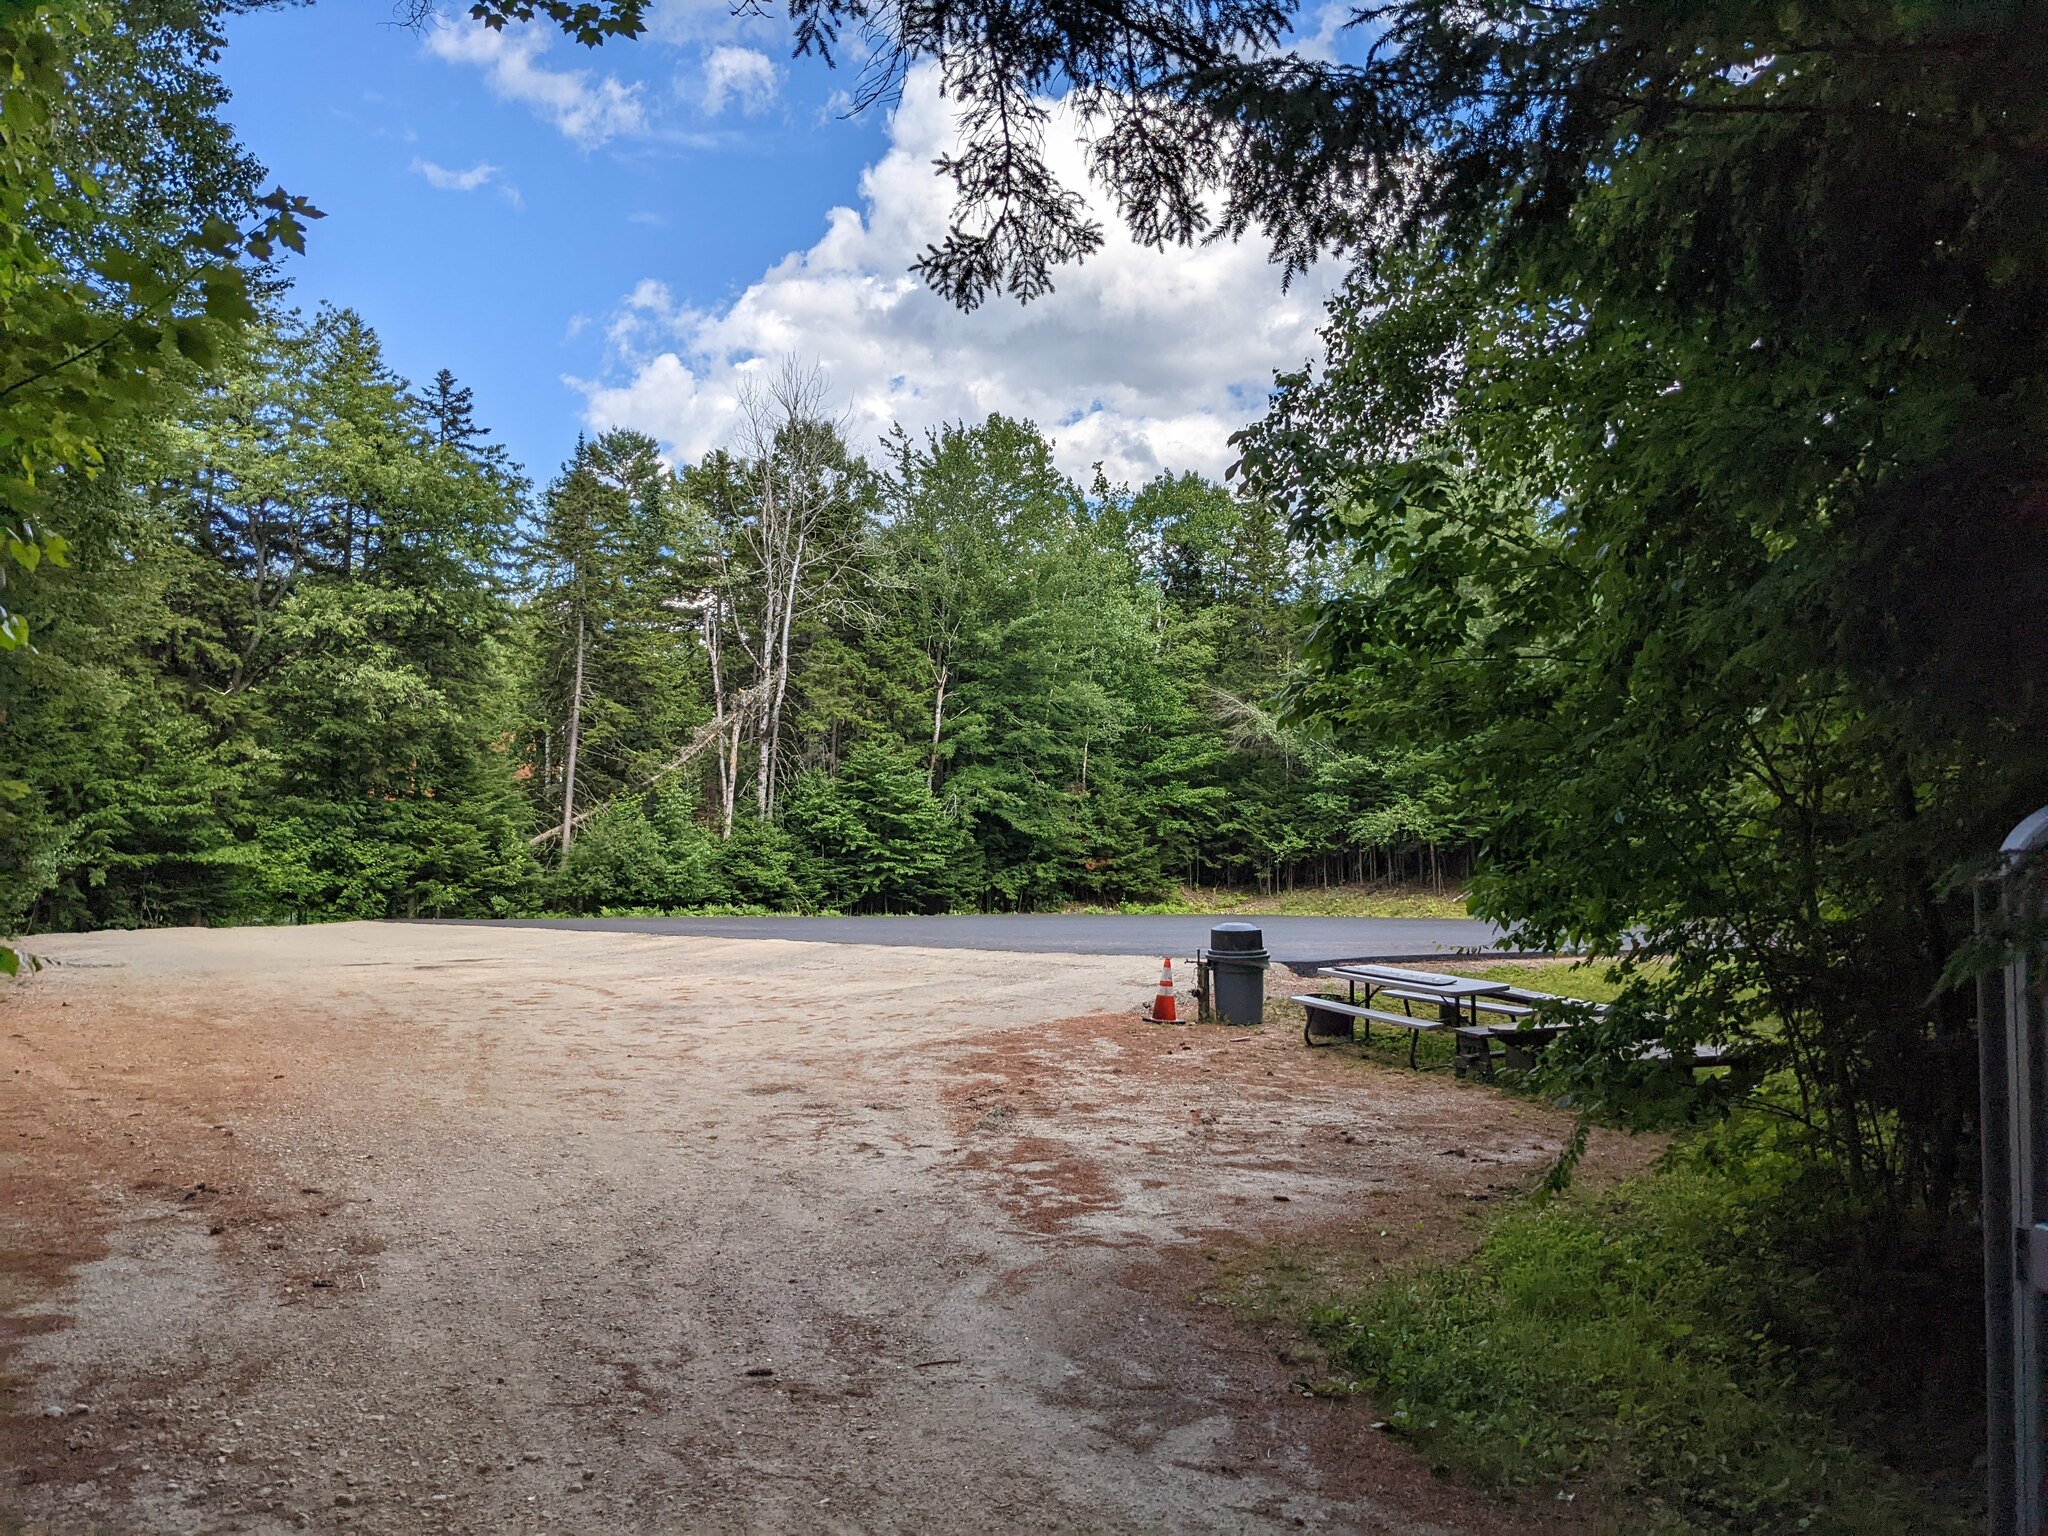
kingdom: Plantae
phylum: Tracheophyta
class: Pinopsida
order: Pinales
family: Pinaceae
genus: Pinus
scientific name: Pinus strobus
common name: Weymouth pine
